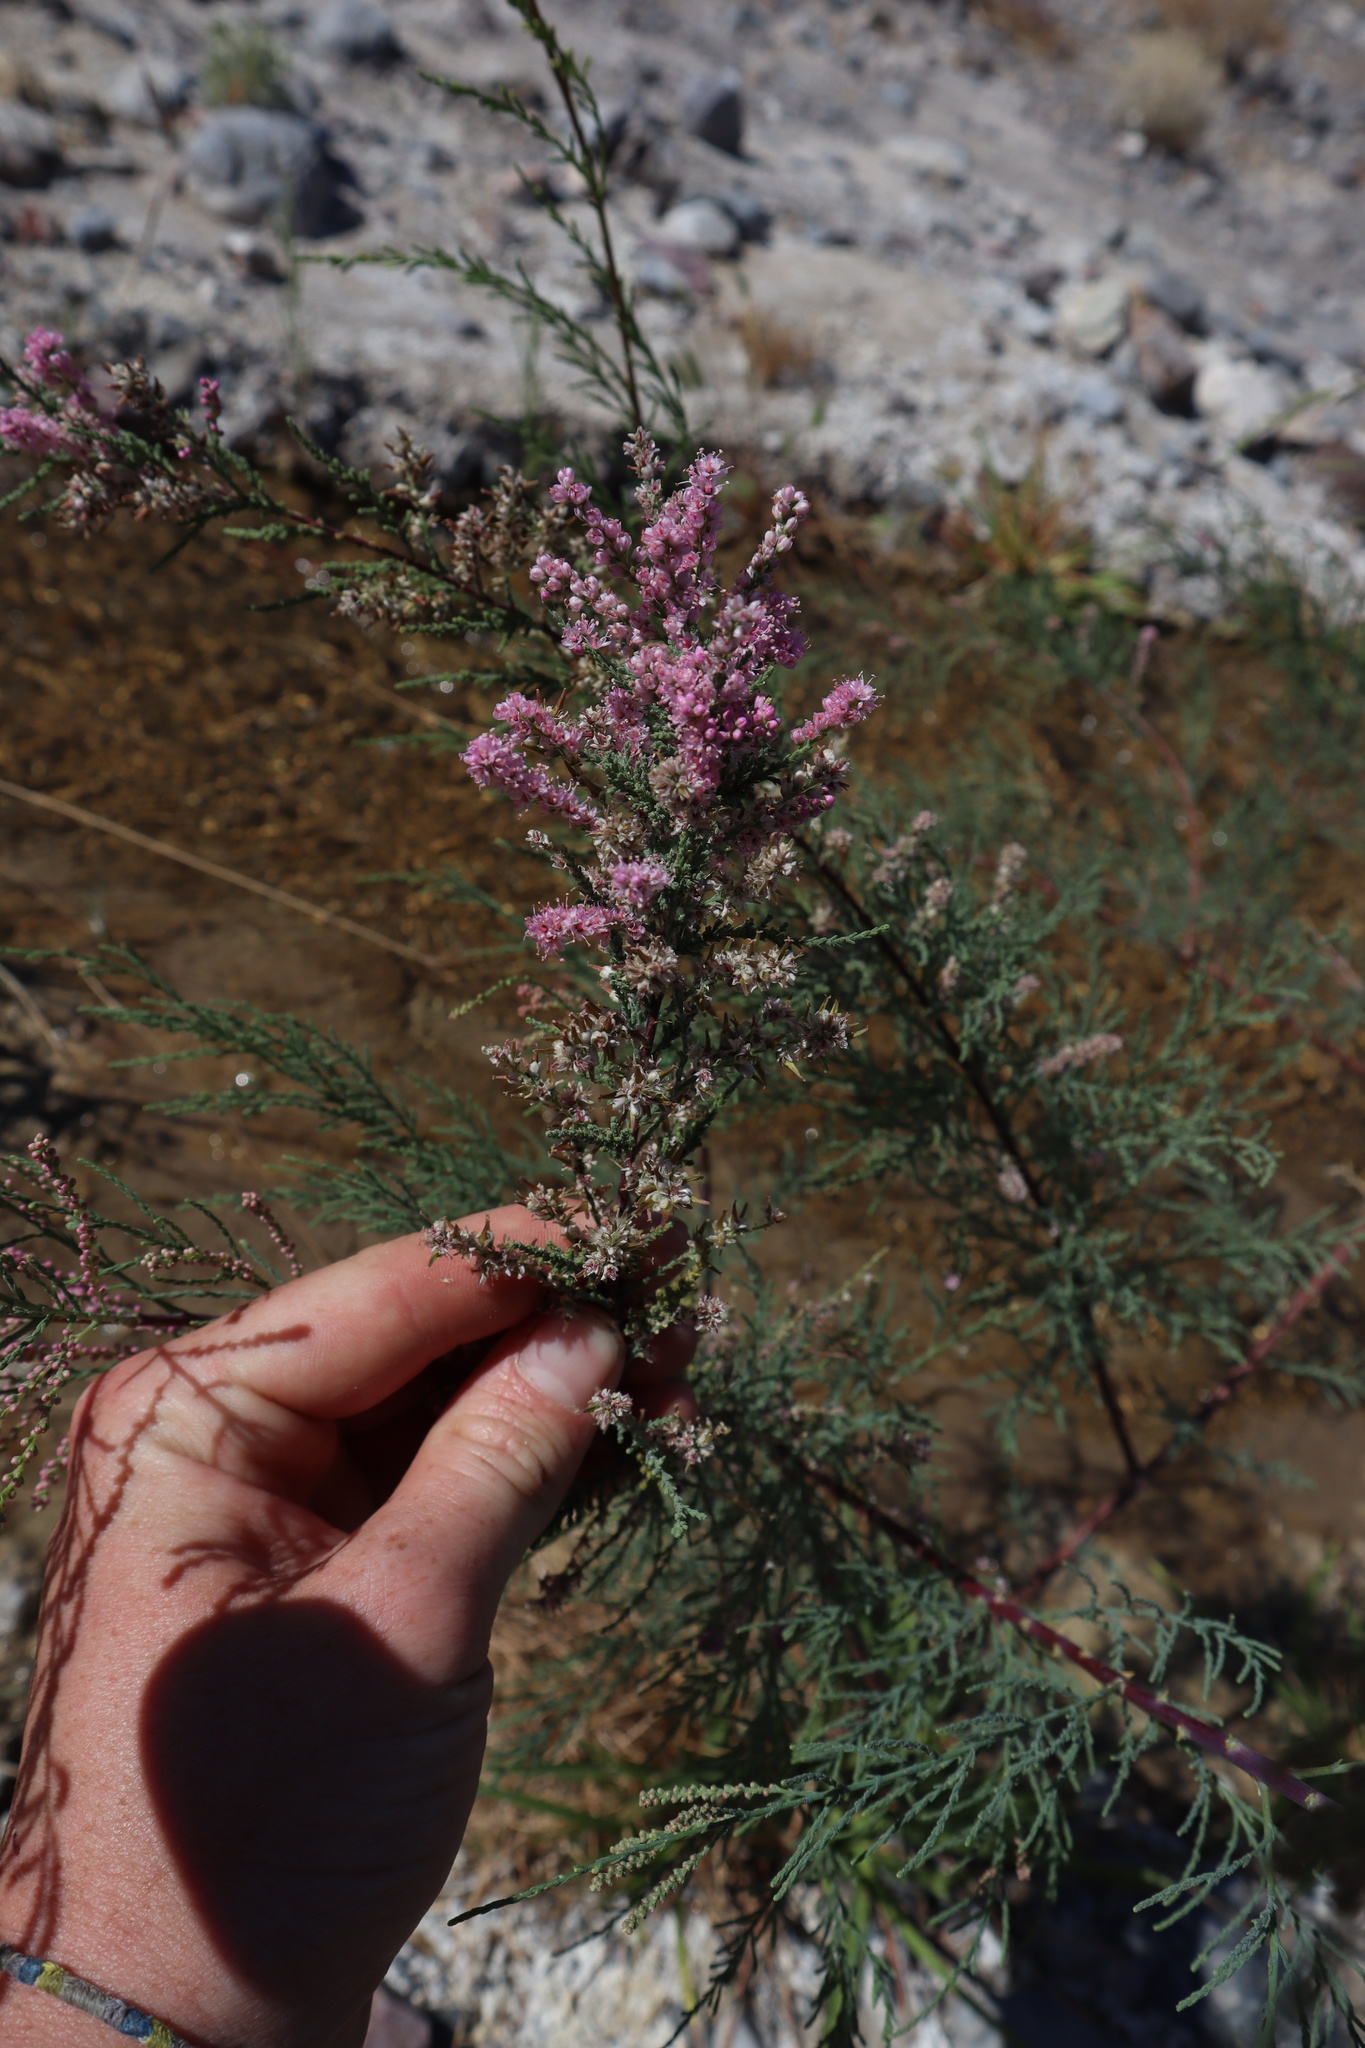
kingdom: Plantae
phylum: Tracheophyta
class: Magnoliopsida
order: Caryophyllales
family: Tamaricaceae
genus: Tamarix
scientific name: Tamarix
